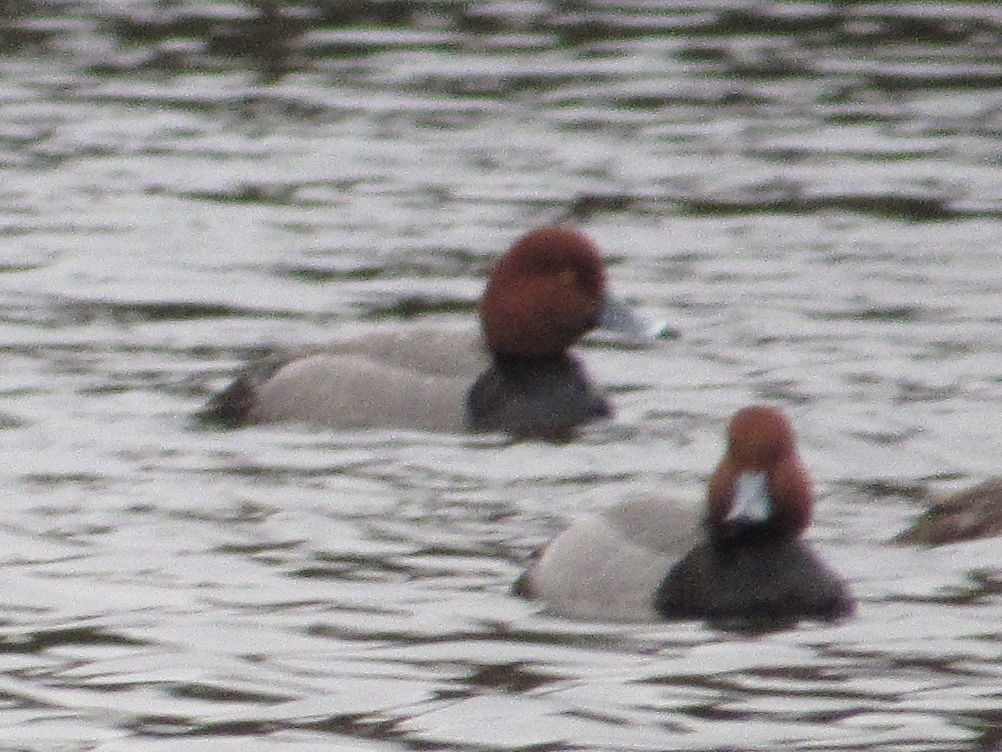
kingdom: Animalia
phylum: Chordata
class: Aves
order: Anseriformes
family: Anatidae
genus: Aythya
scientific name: Aythya americana
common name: Redhead
